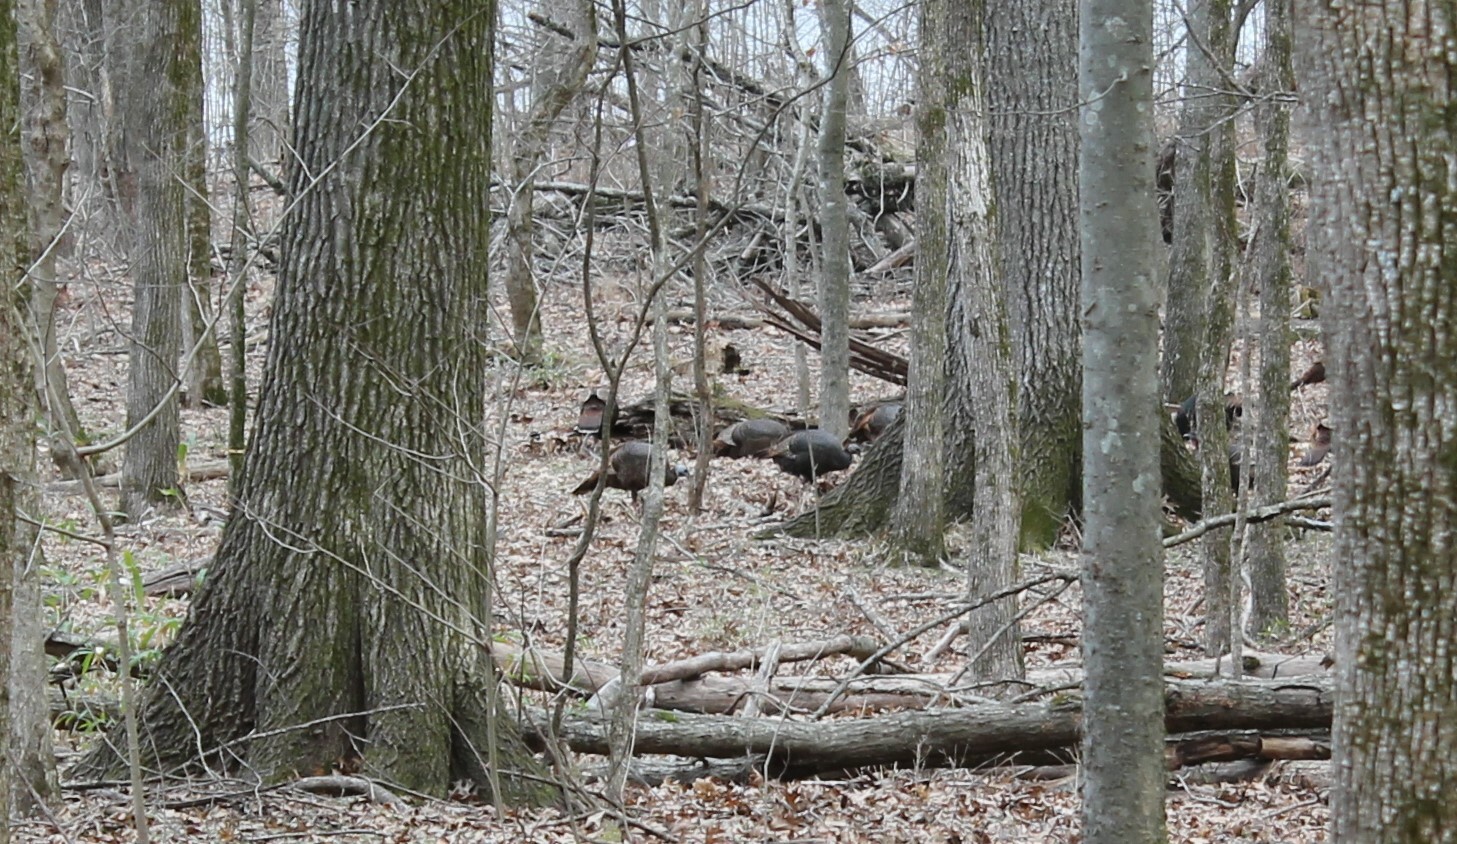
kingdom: Animalia
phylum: Chordata
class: Aves
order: Galliformes
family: Phasianidae
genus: Meleagris
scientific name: Meleagris gallopavo
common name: Wild turkey
